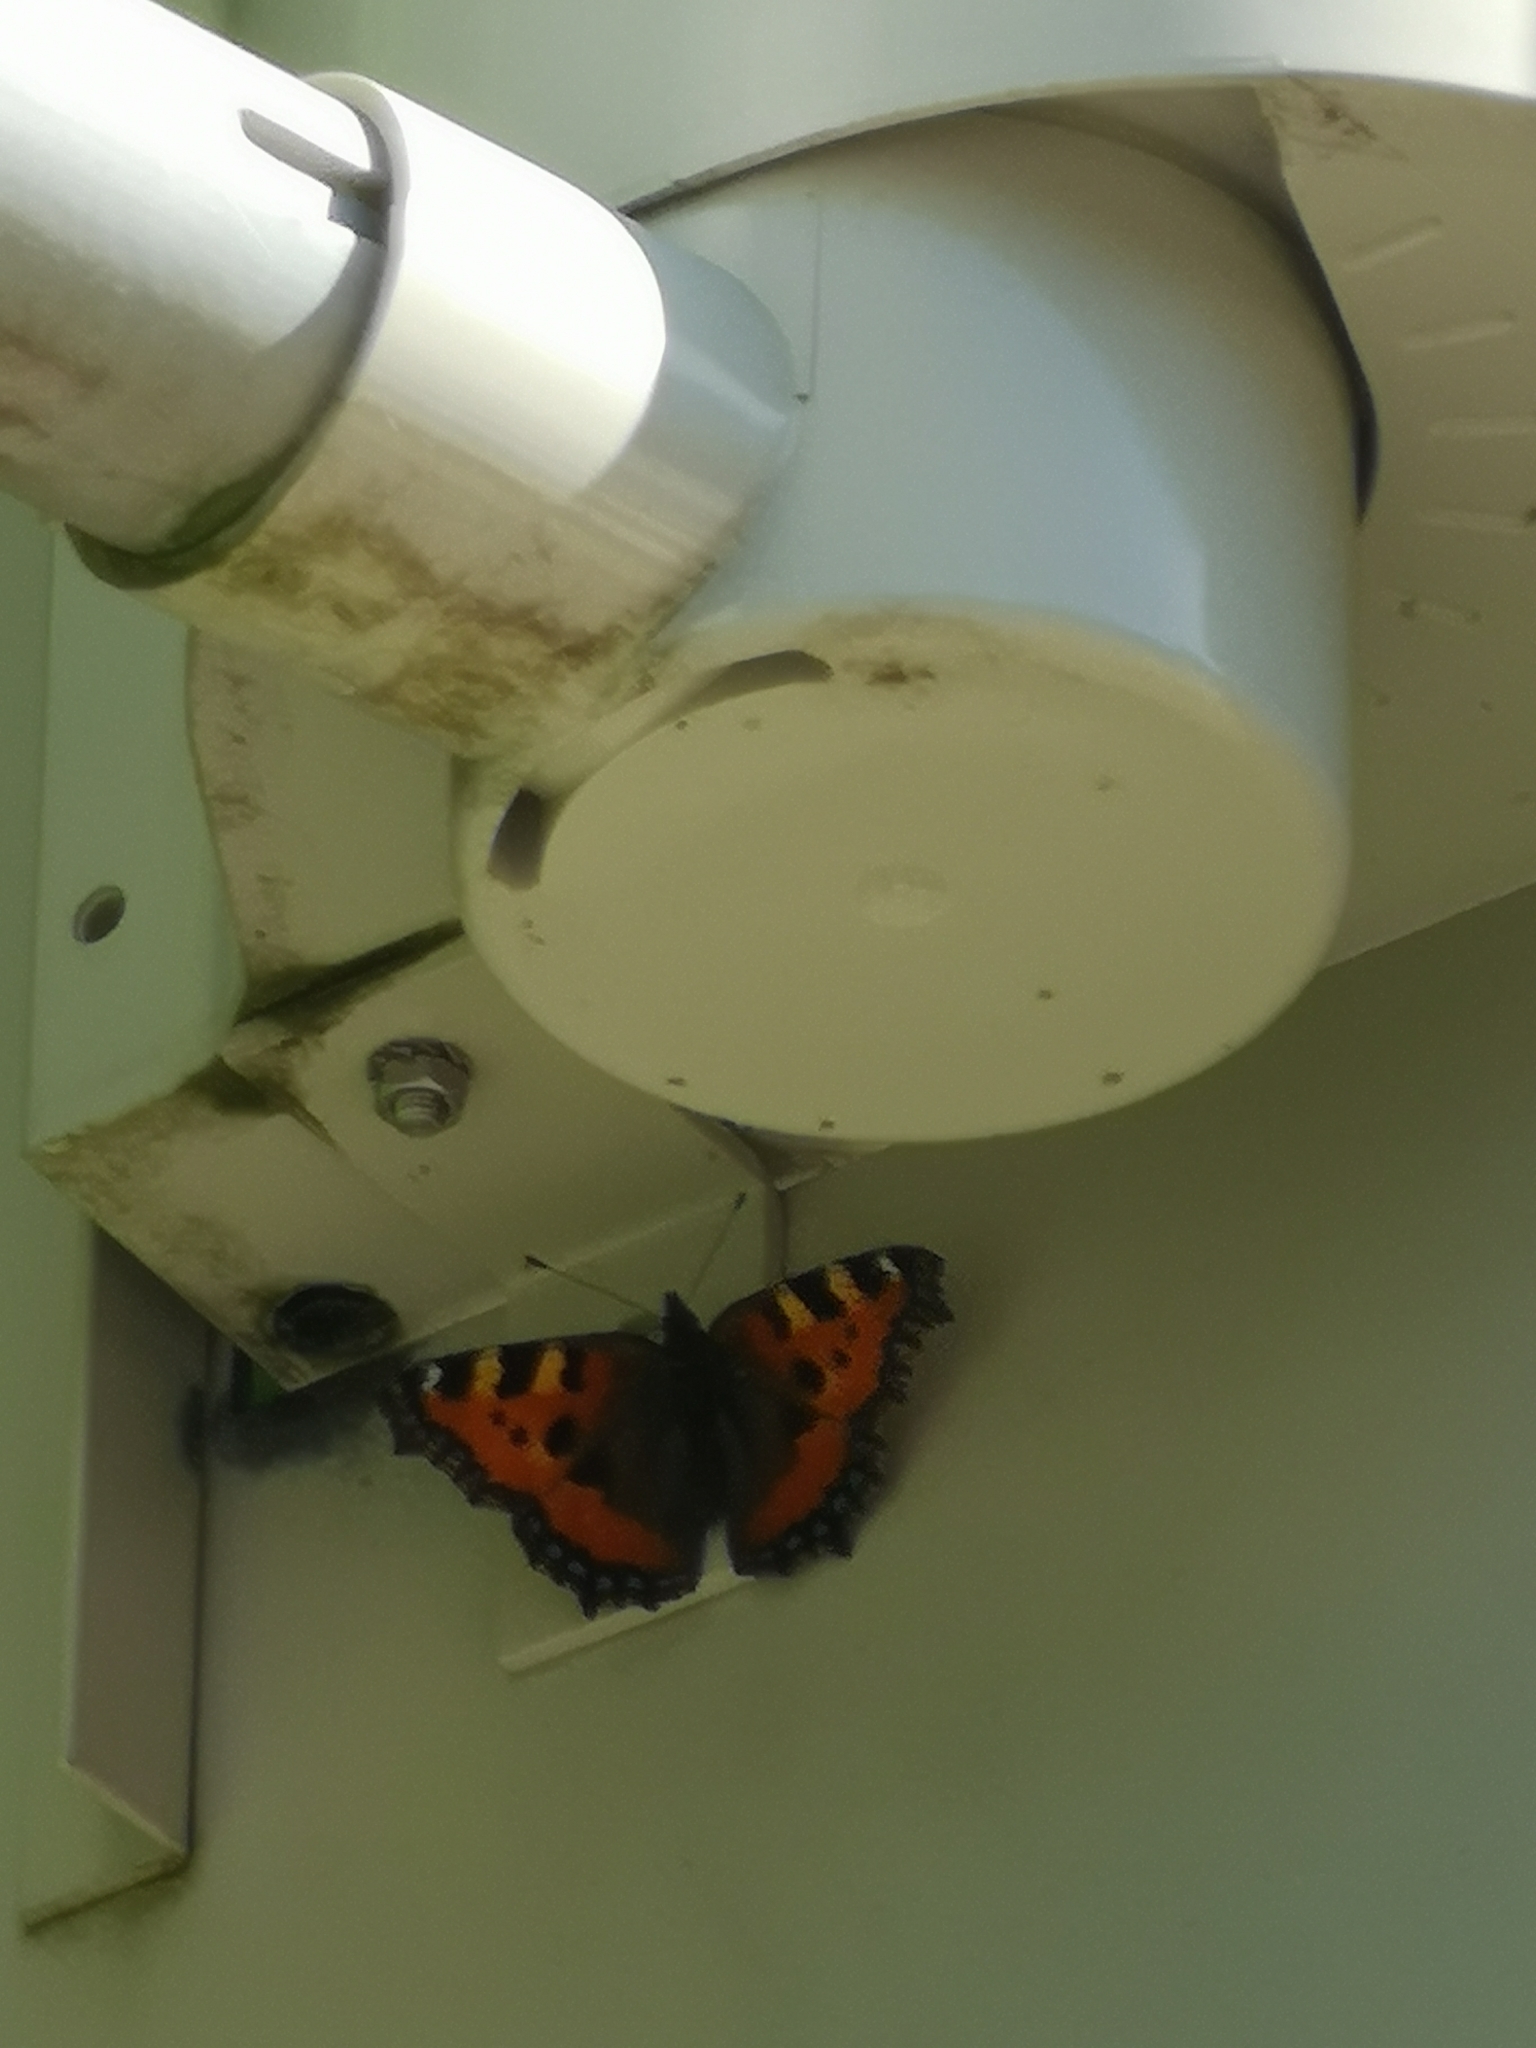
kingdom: Animalia
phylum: Arthropoda
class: Insecta
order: Lepidoptera
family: Nymphalidae
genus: Aglais
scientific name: Aglais urticae
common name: Small tortoiseshell
